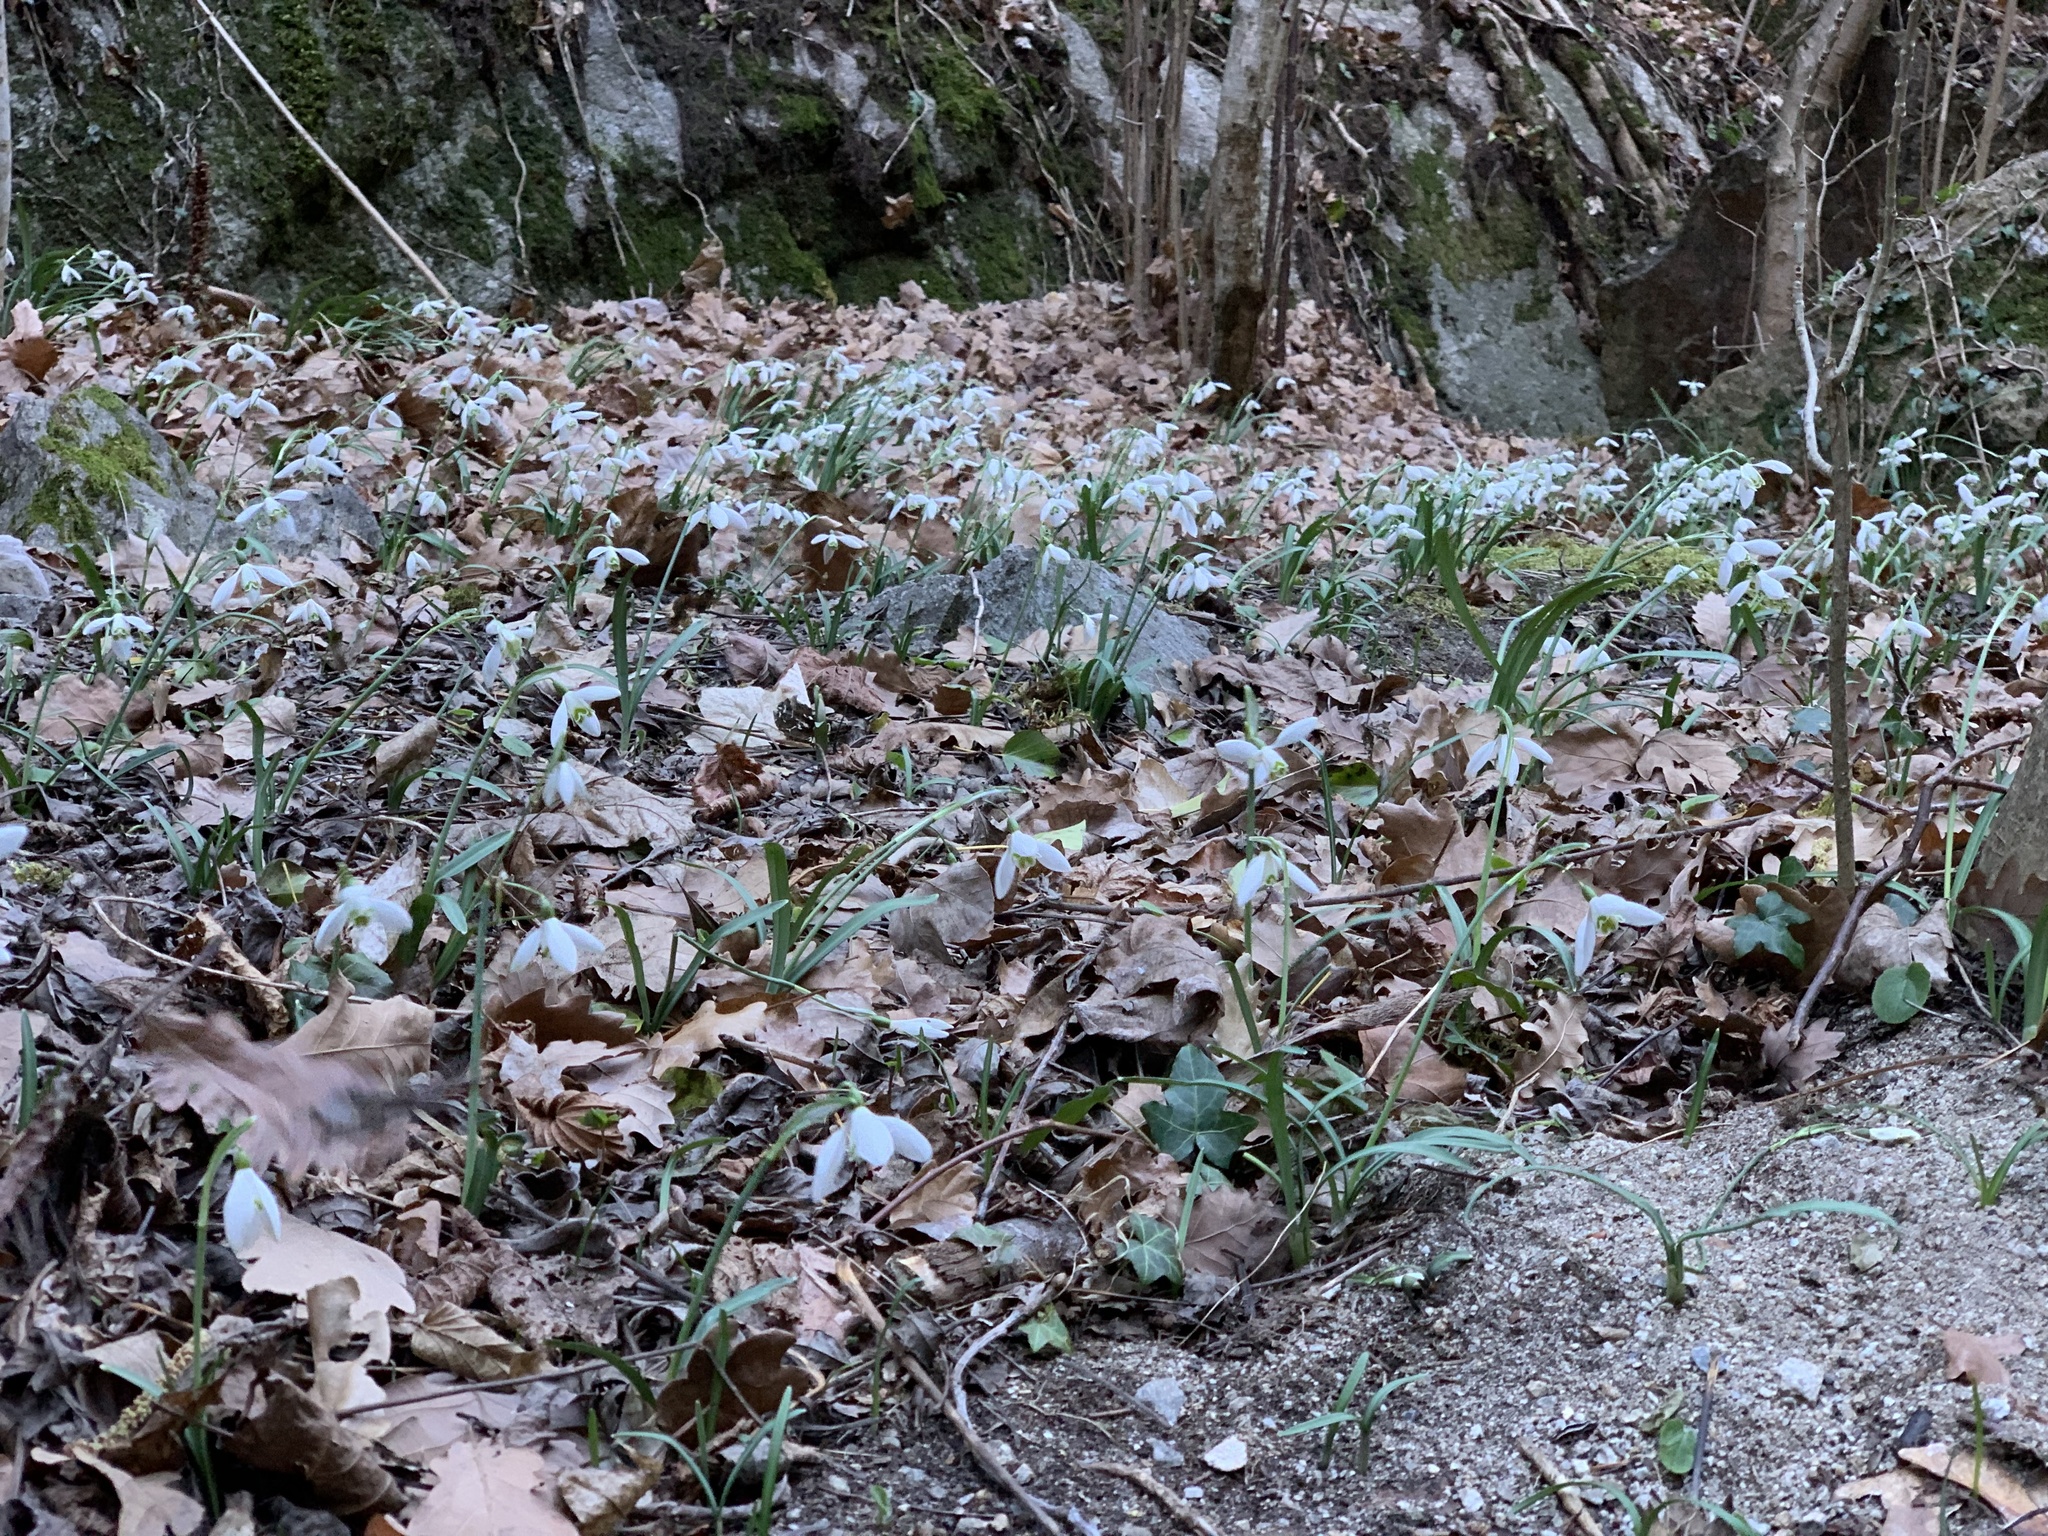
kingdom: Plantae
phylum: Tracheophyta
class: Liliopsida
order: Asparagales
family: Amaryllidaceae
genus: Galanthus
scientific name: Galanthus nivalis
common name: Snowdrop
